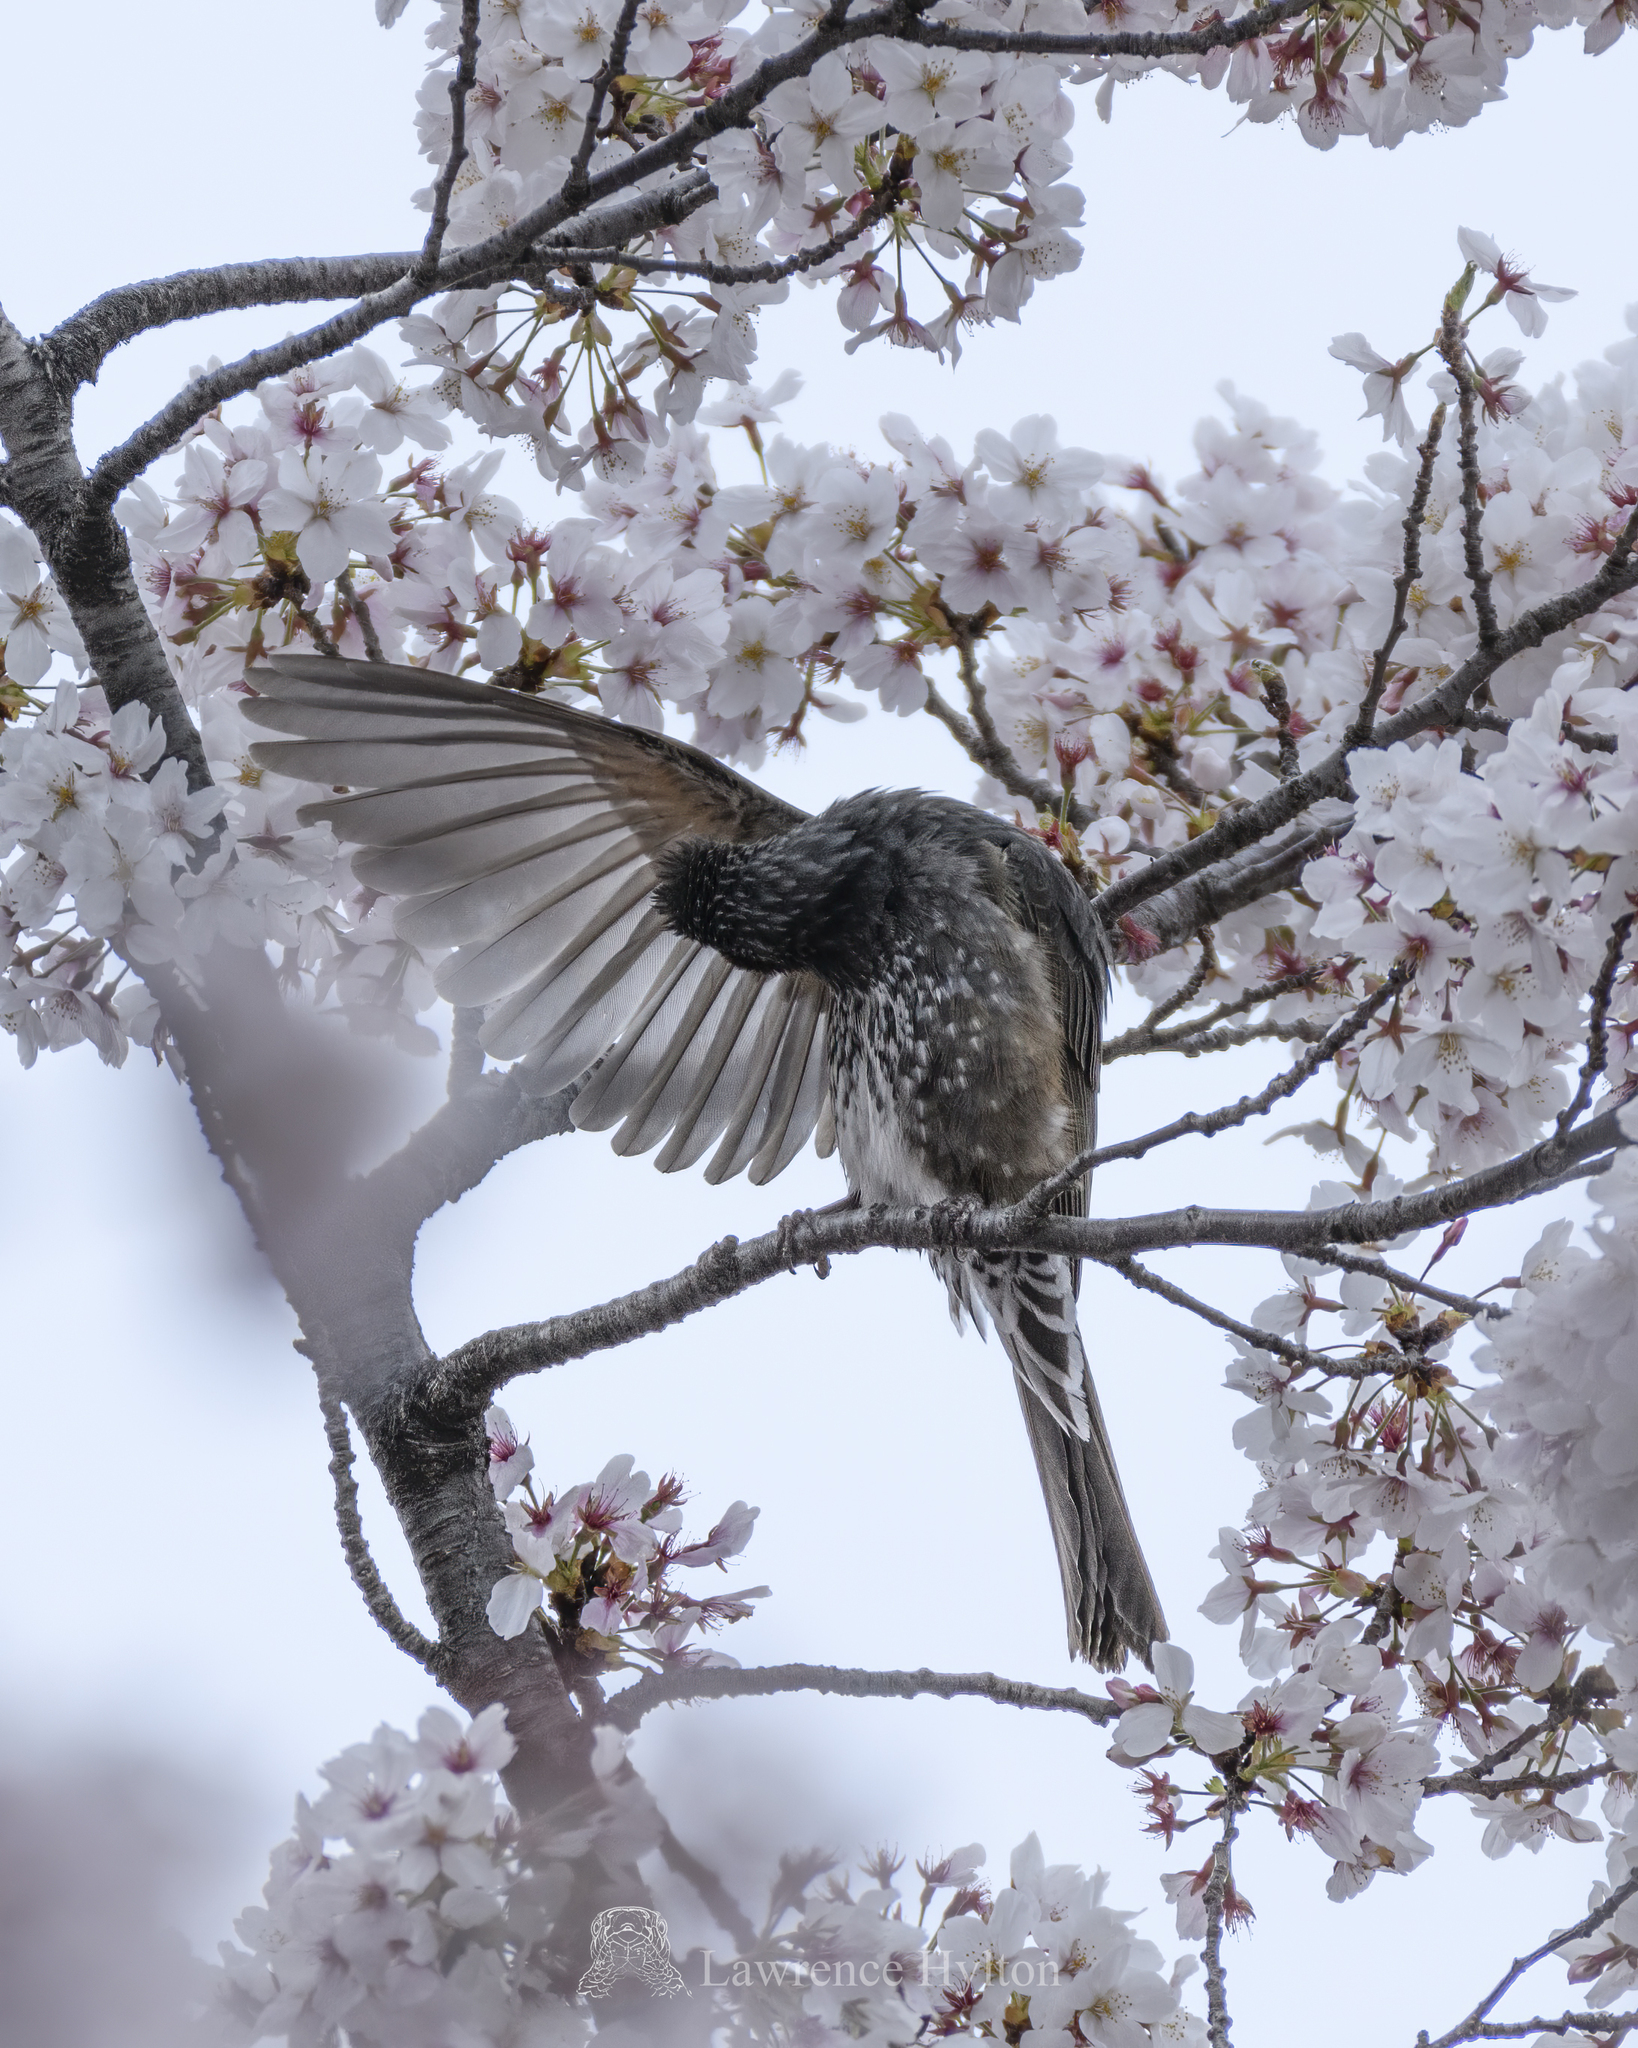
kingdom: Animalia
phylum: Chordata
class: Aves
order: Passeriformes
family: Pycnonotidae
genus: Hypsipetes
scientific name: Hypsipetes amaurotis
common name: Brown-eared bulbul
